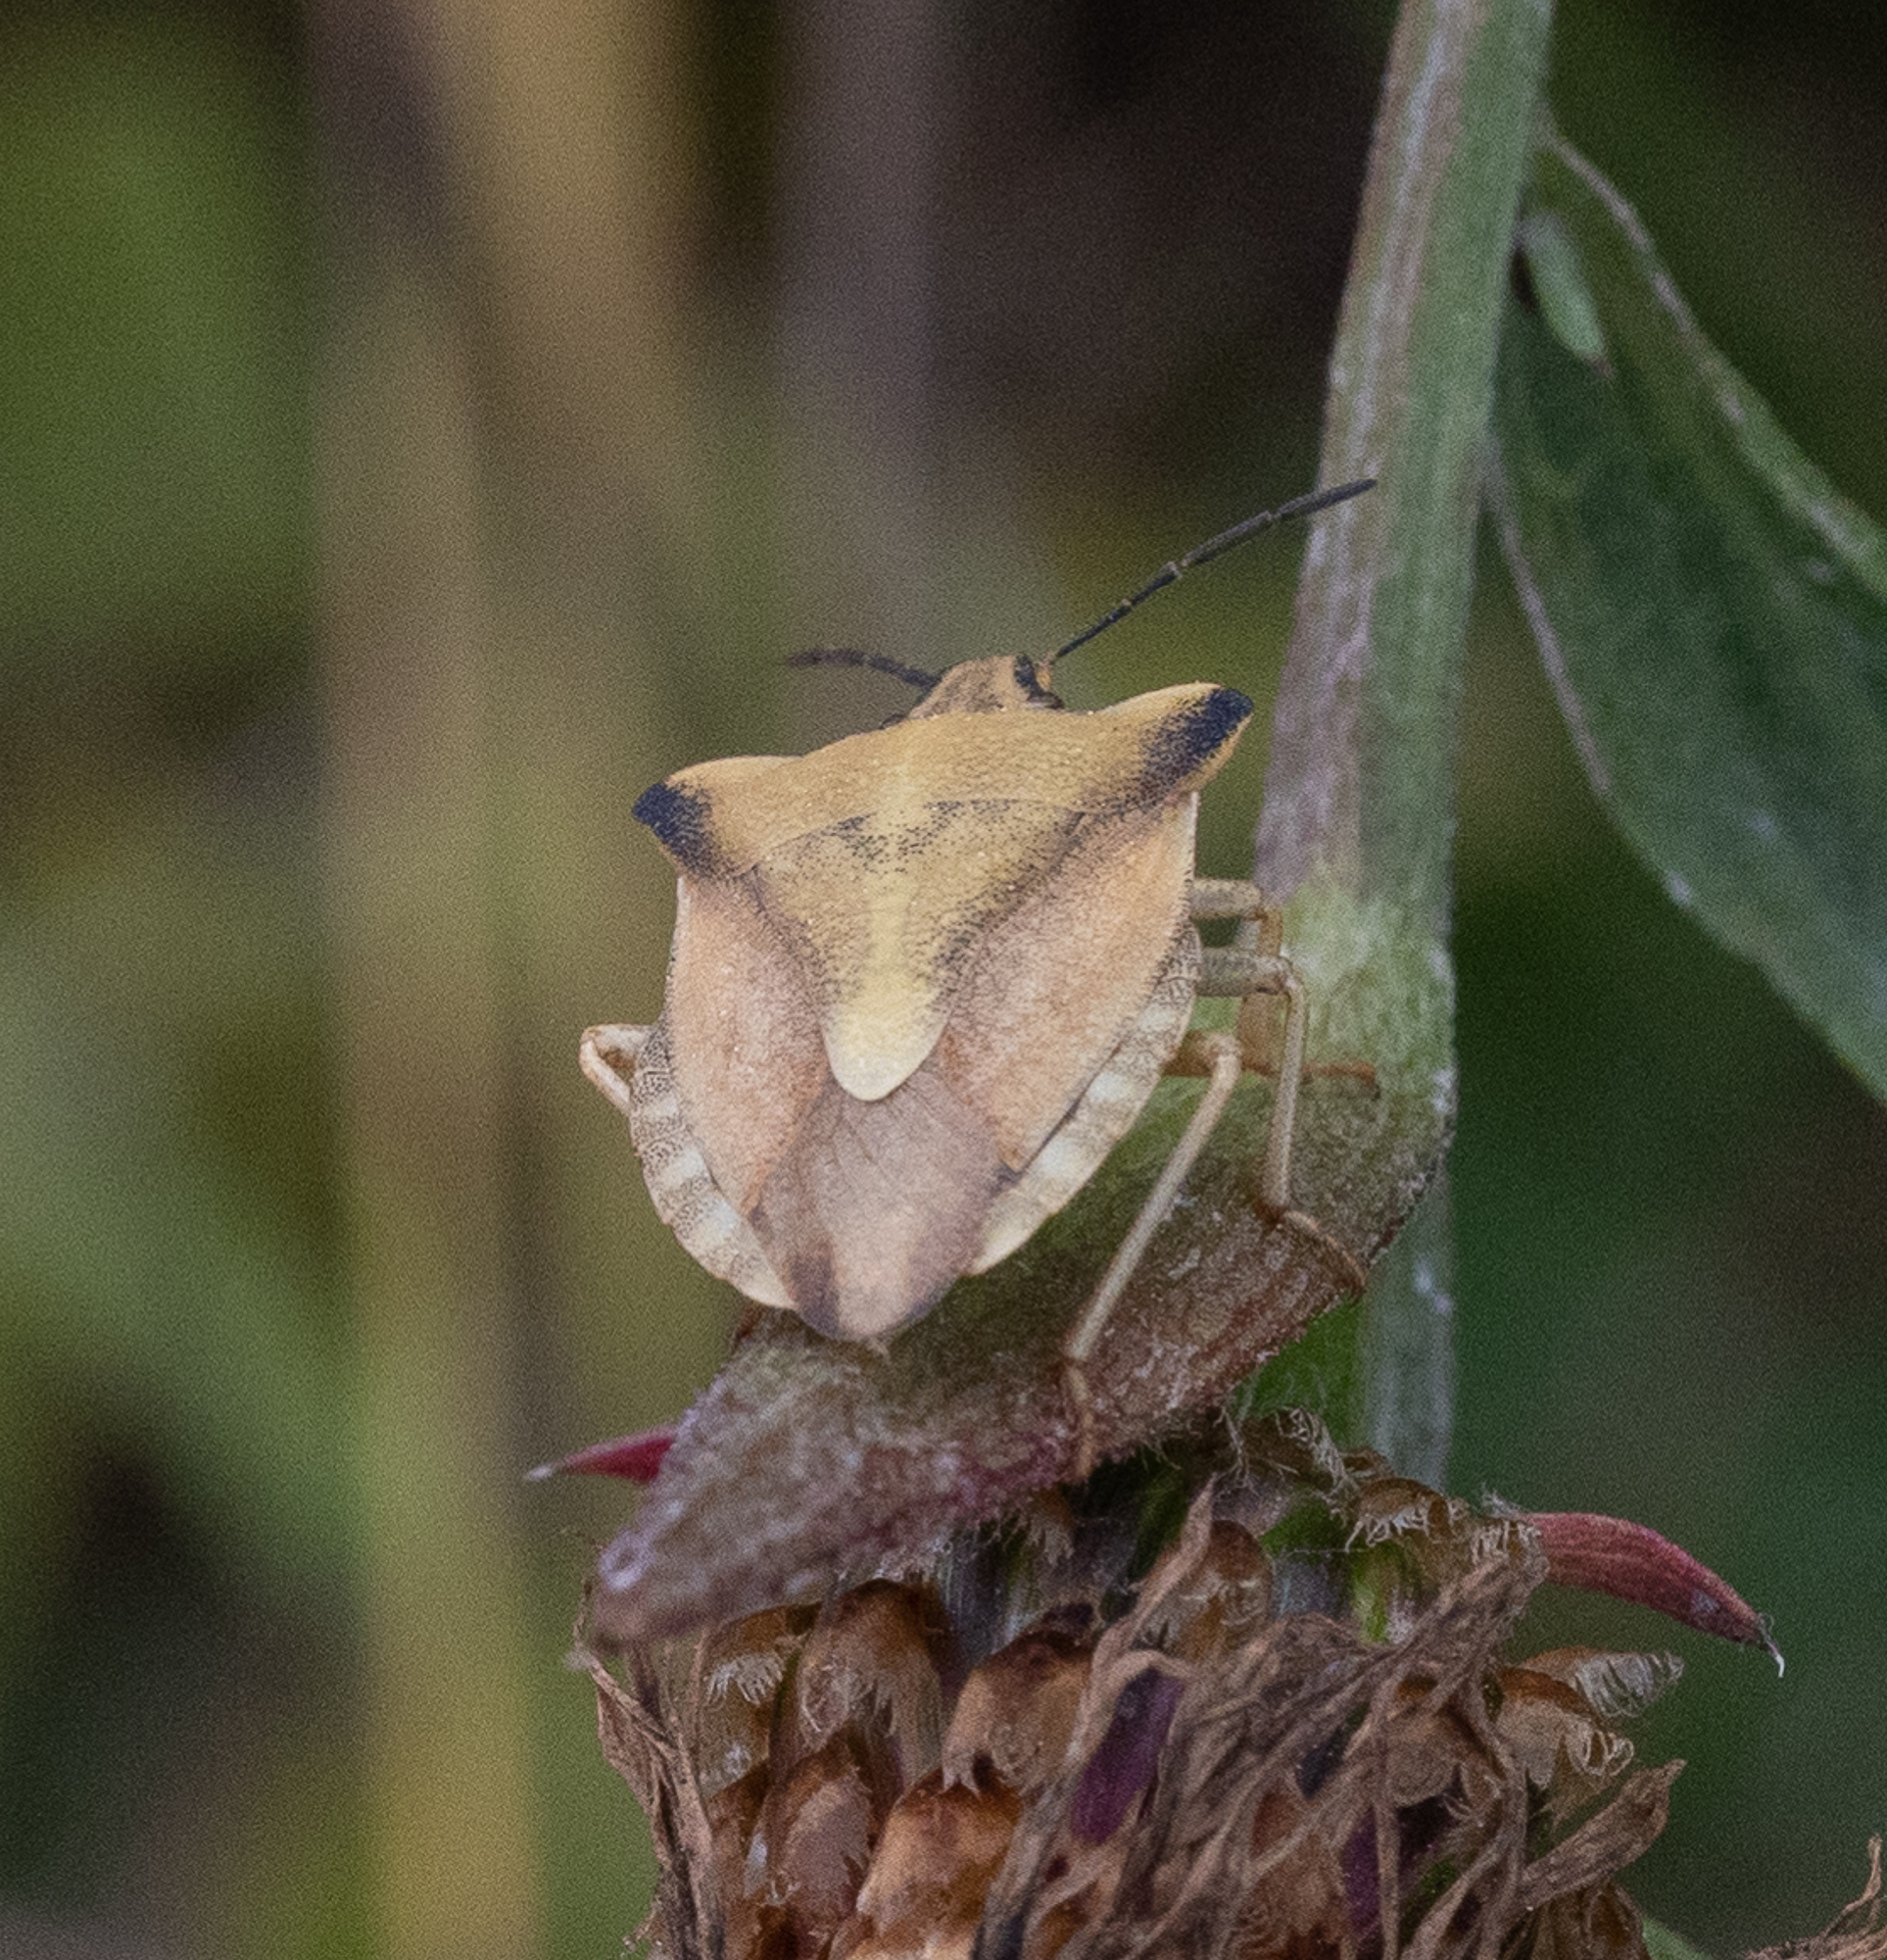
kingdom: Animalia
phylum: Arthropoda
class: Insecta
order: Hemiptera
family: Pentatomidae
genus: Carpocoris
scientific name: Carpocoris fuscispinus
